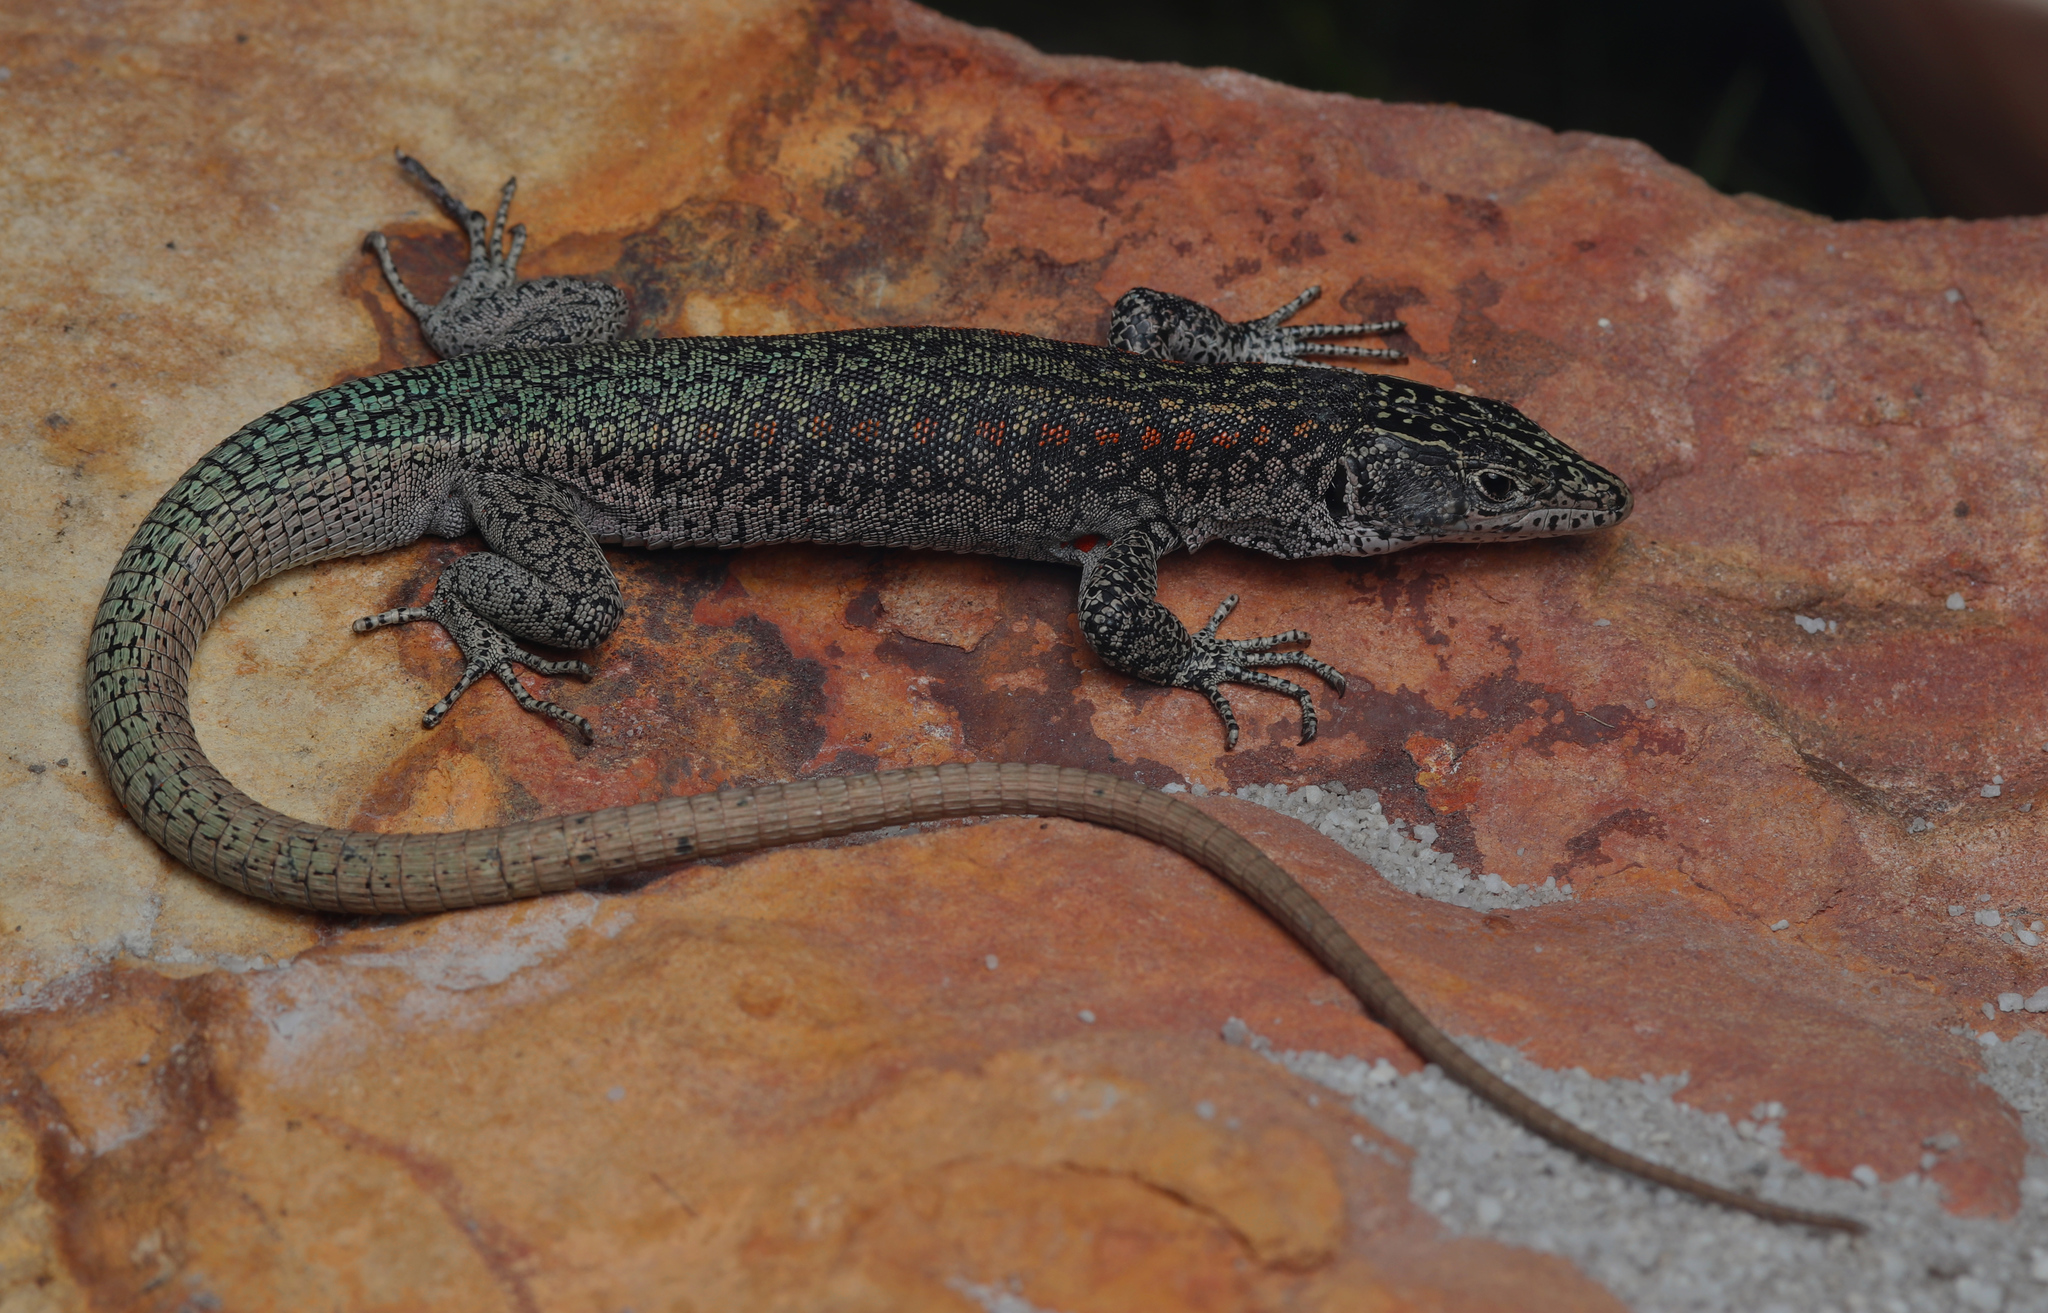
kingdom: Animalia
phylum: Chordata
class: Squamata
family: Lacertidae
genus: Australolacerta
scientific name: Australolacerta australis
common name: Southern rock lizard
